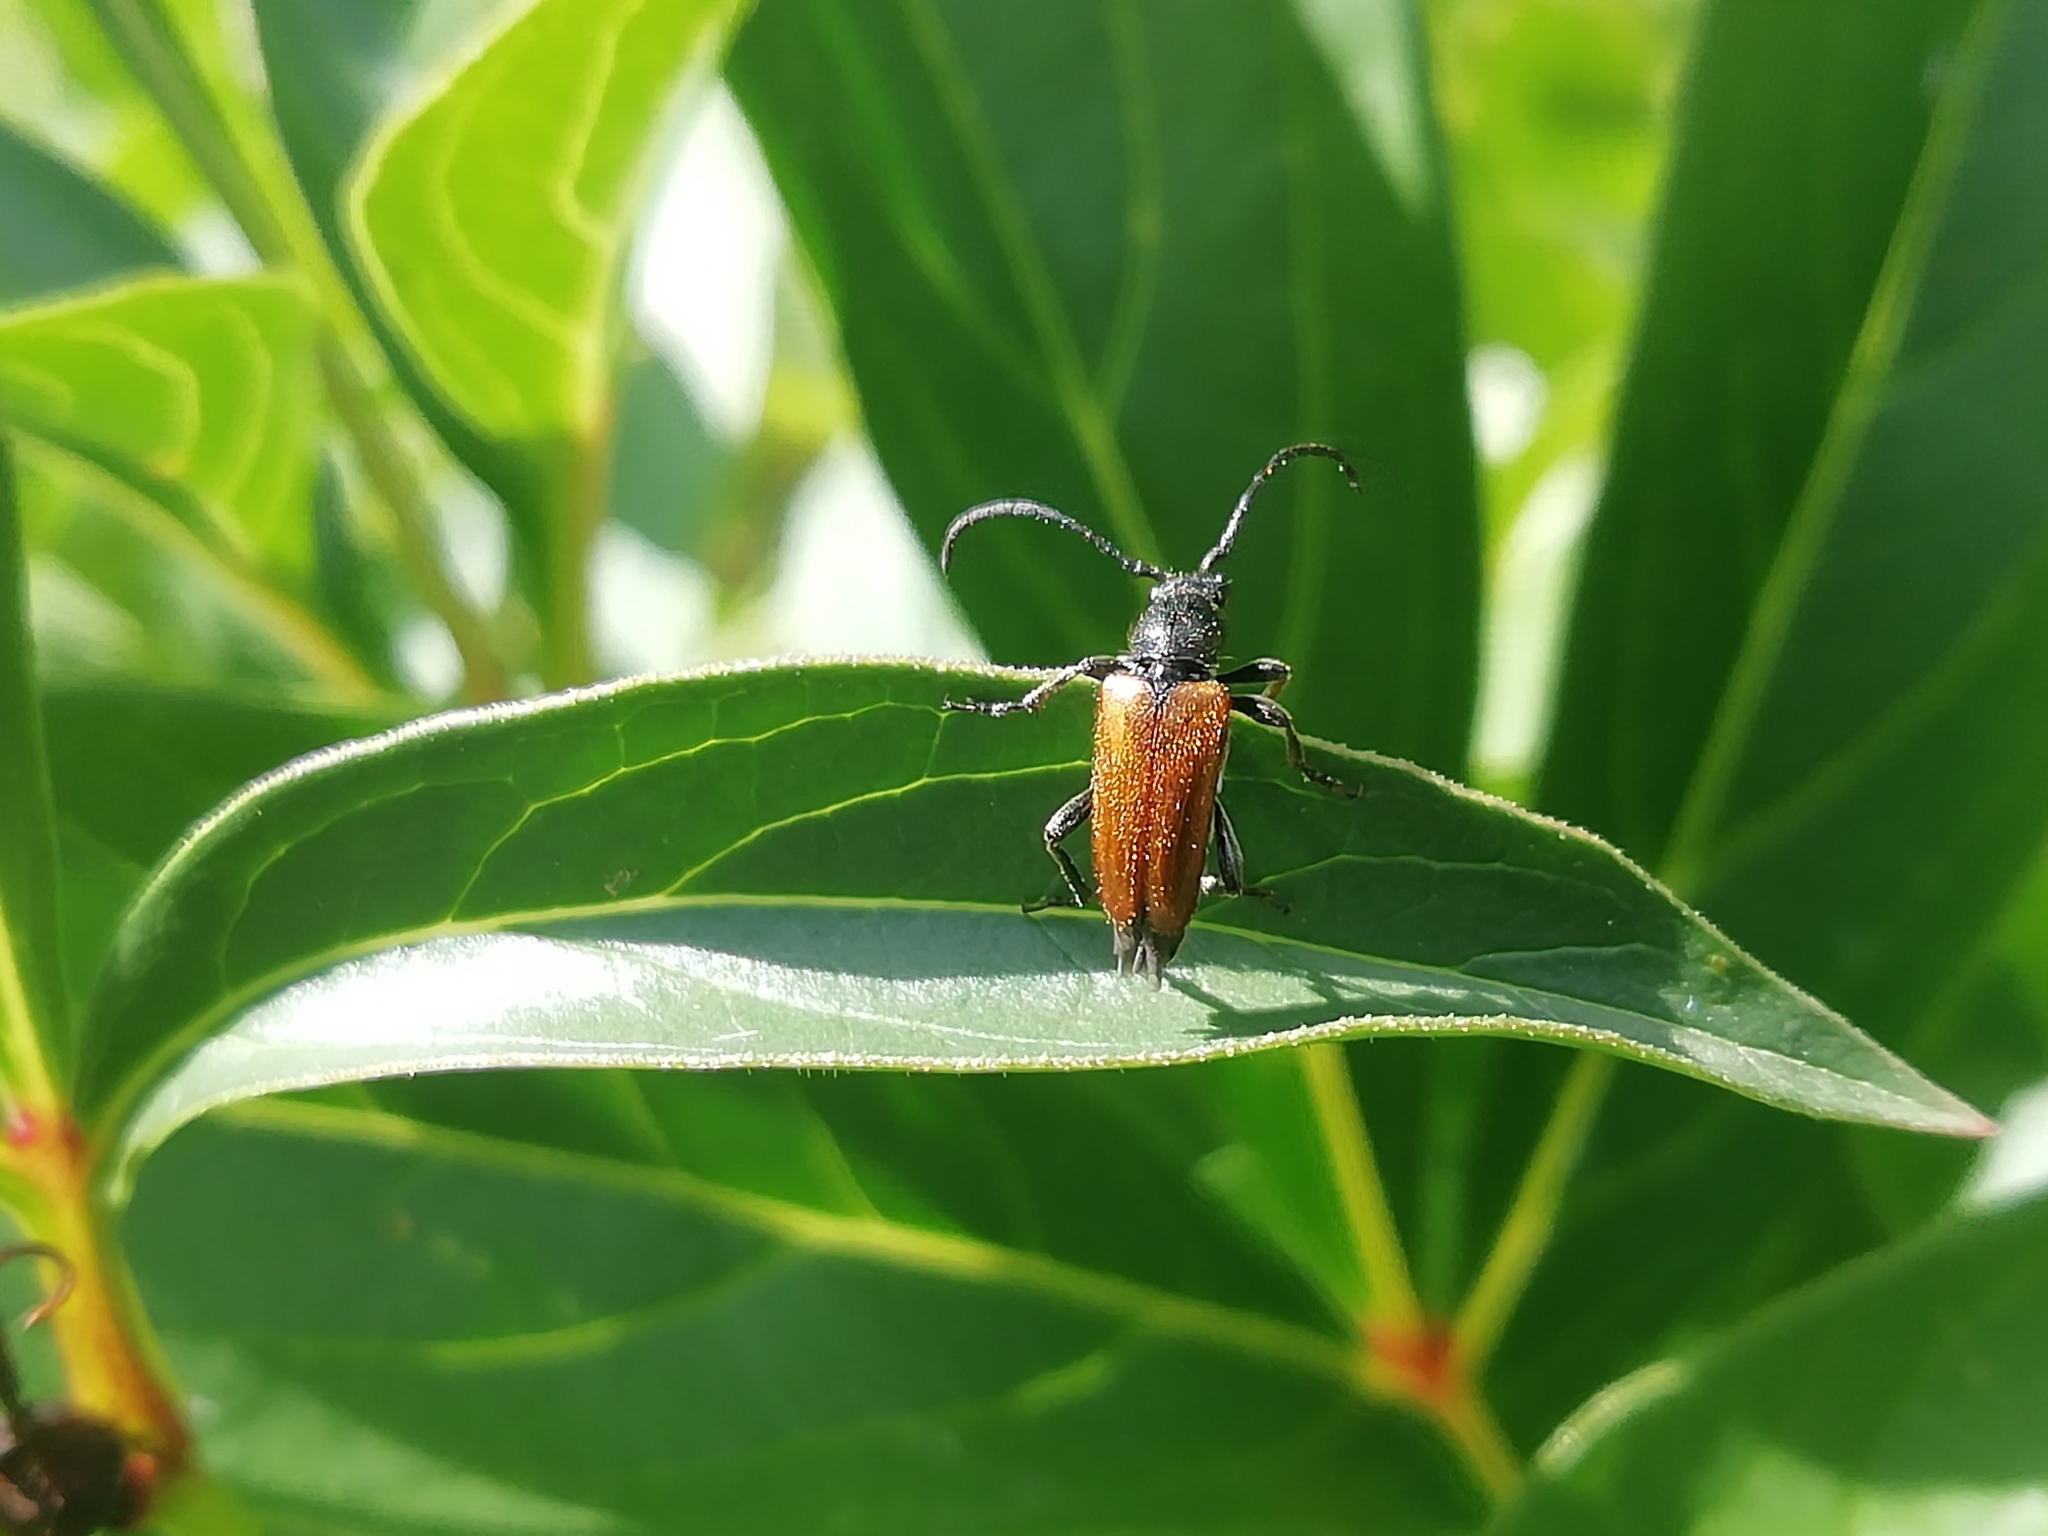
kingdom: Animalia
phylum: Arthropoda
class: Insecta
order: Coleoptera
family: Cerambycidae
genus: Pseudovadonia
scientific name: Pseudovadonia livida
